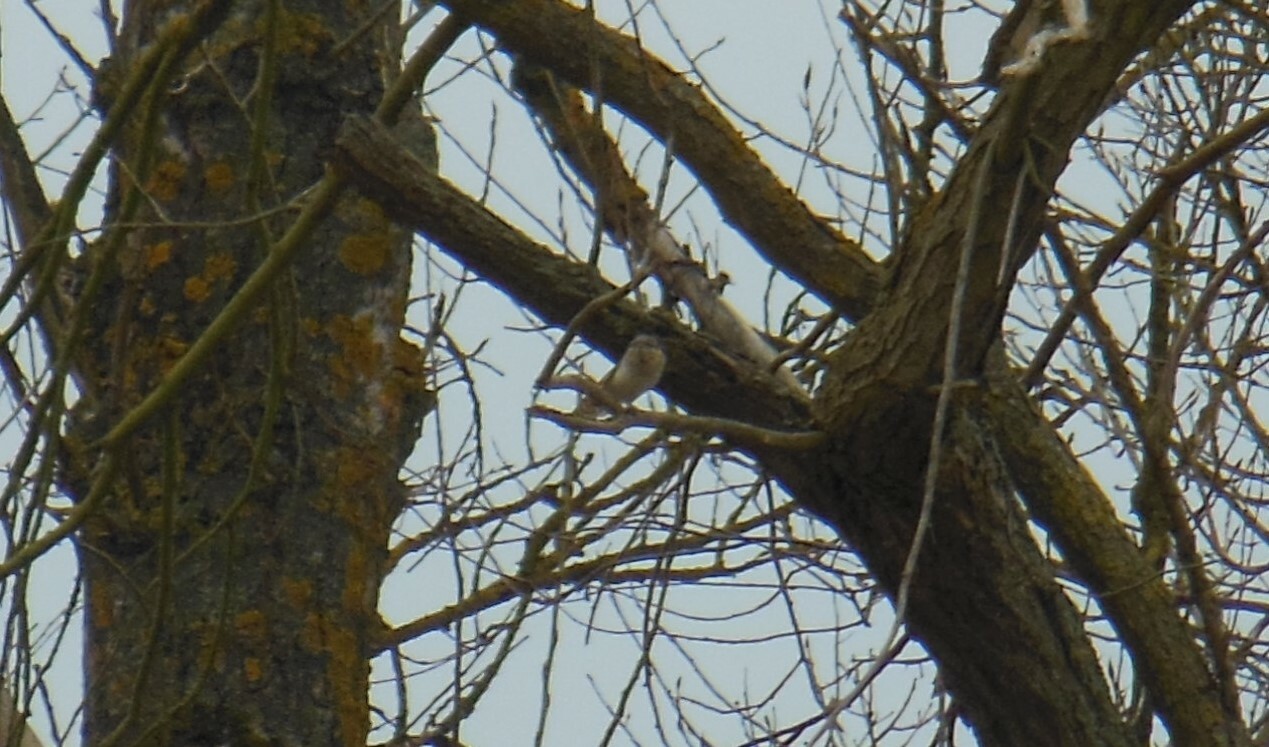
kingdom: Animalia
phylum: Chordata
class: Aves
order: Piciformes
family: Picidae
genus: Jynx
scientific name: Jynx torquilla
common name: Eurasian wryneck
